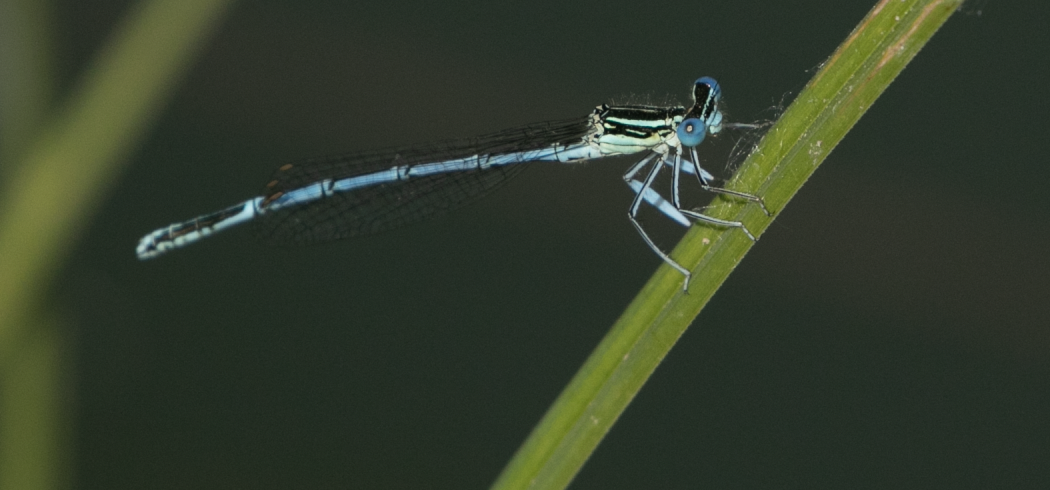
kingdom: Animalia
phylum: Arthropoda
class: Insecta
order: Odonata
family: Platycnemididae
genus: Platycnemis
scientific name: Platycnemis pennipes
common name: White-legged damselfly
